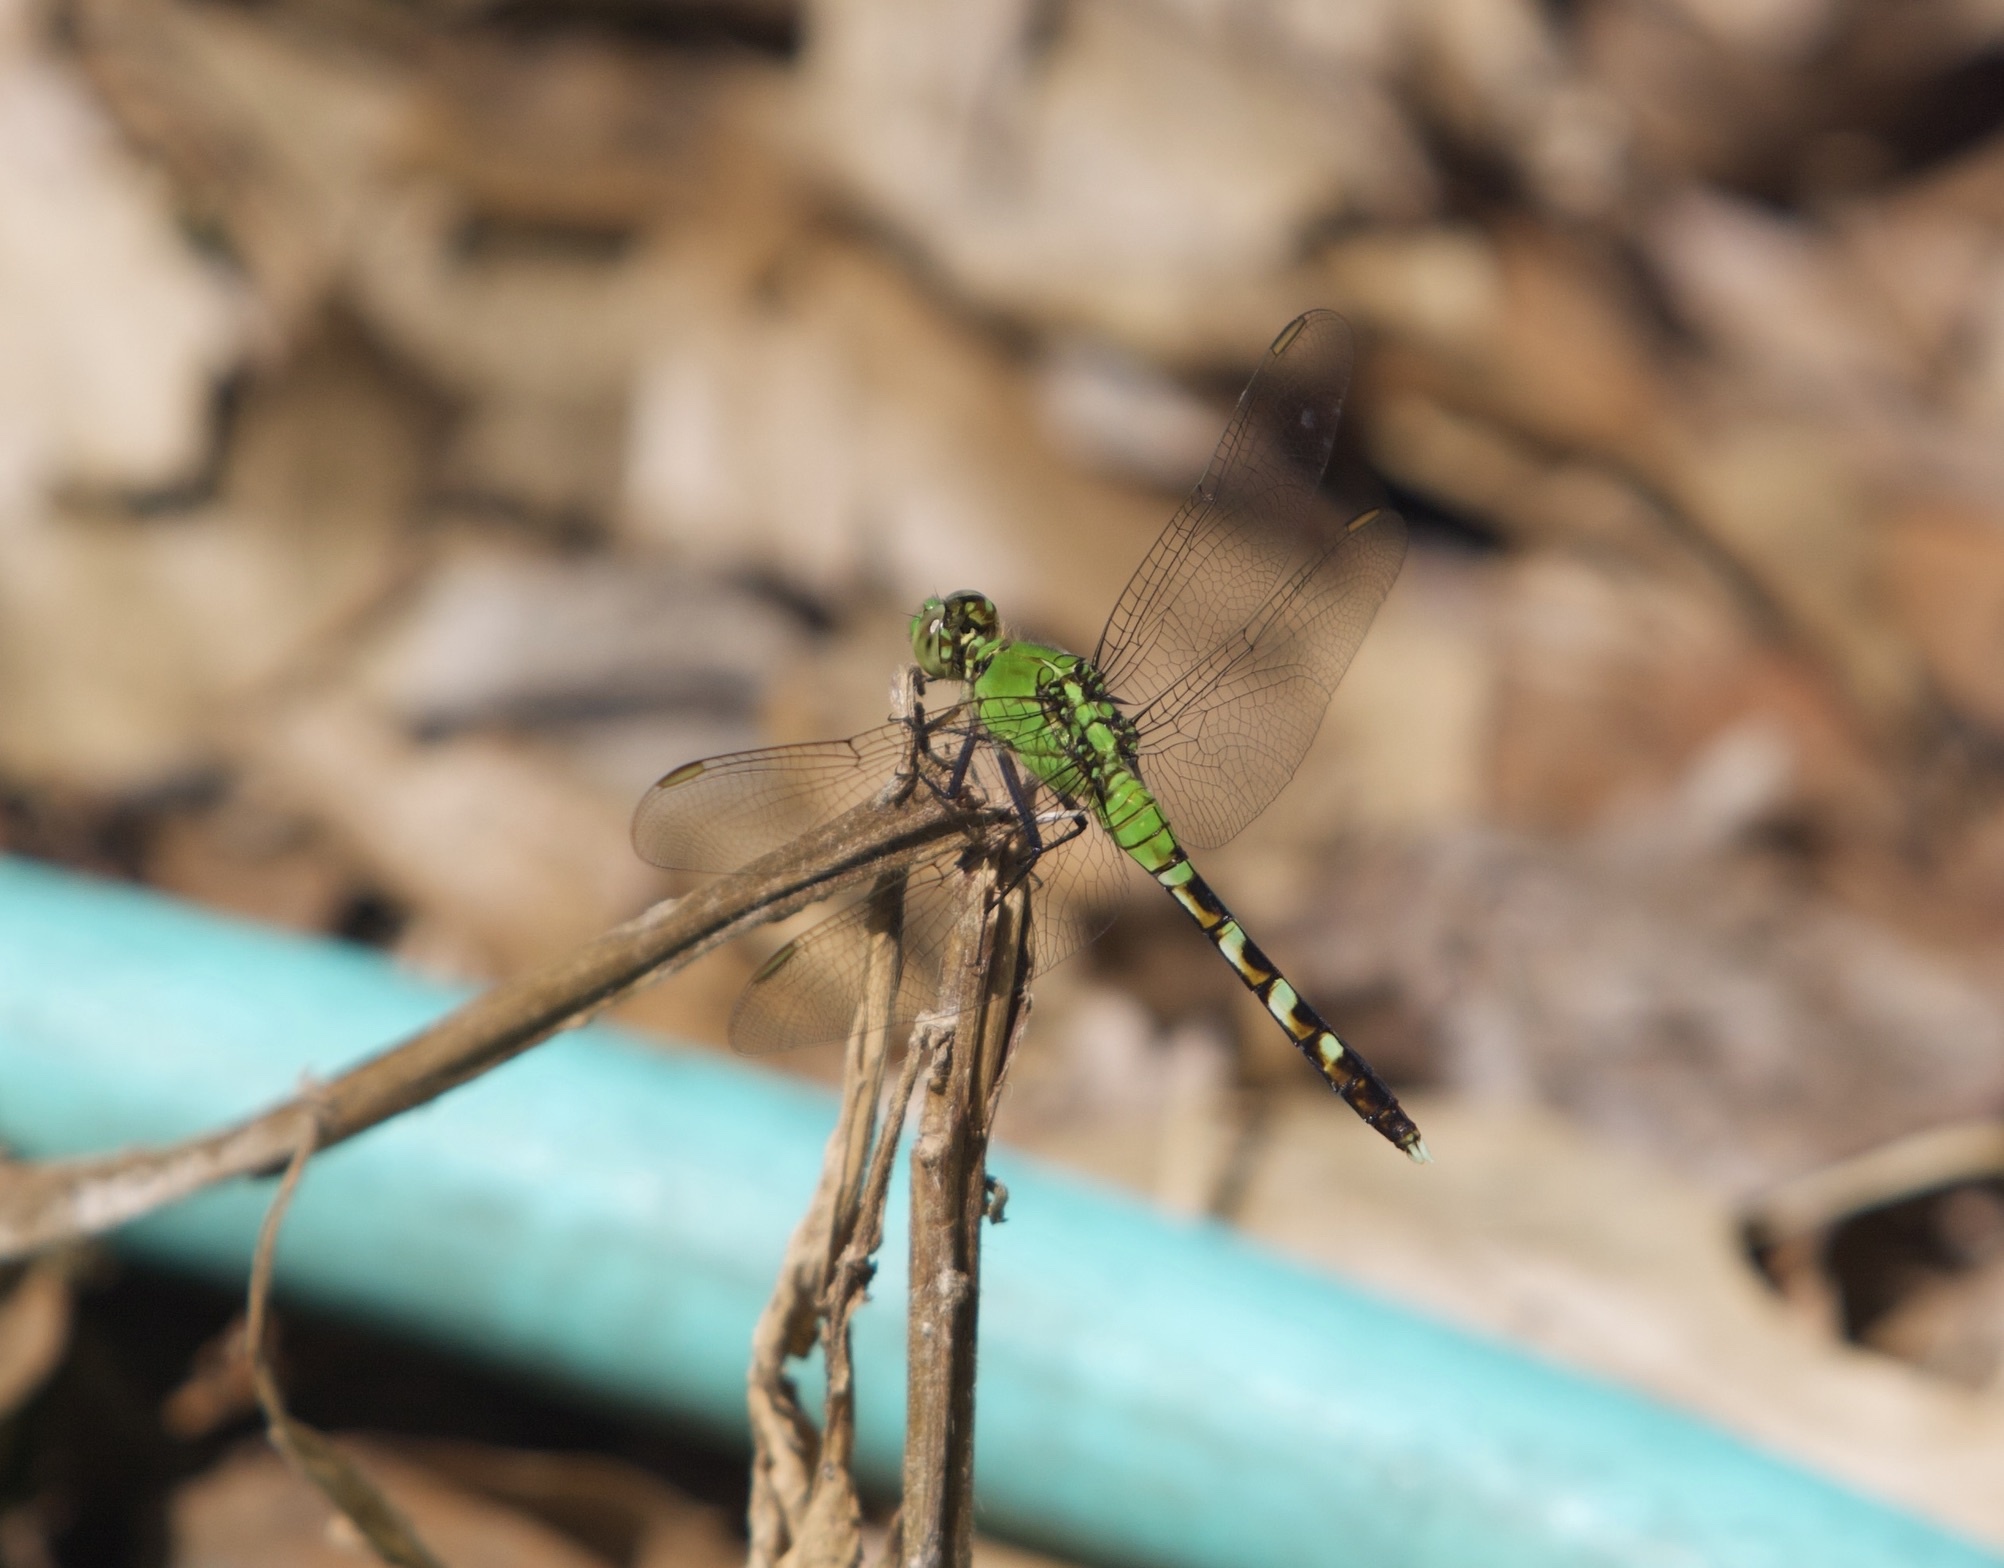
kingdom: Animalia
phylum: Arthropoda
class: Insecta
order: Odonata
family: Libellulidae
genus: Erythemis
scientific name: Erythemis simplicicollis
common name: Eastern pondhawk
